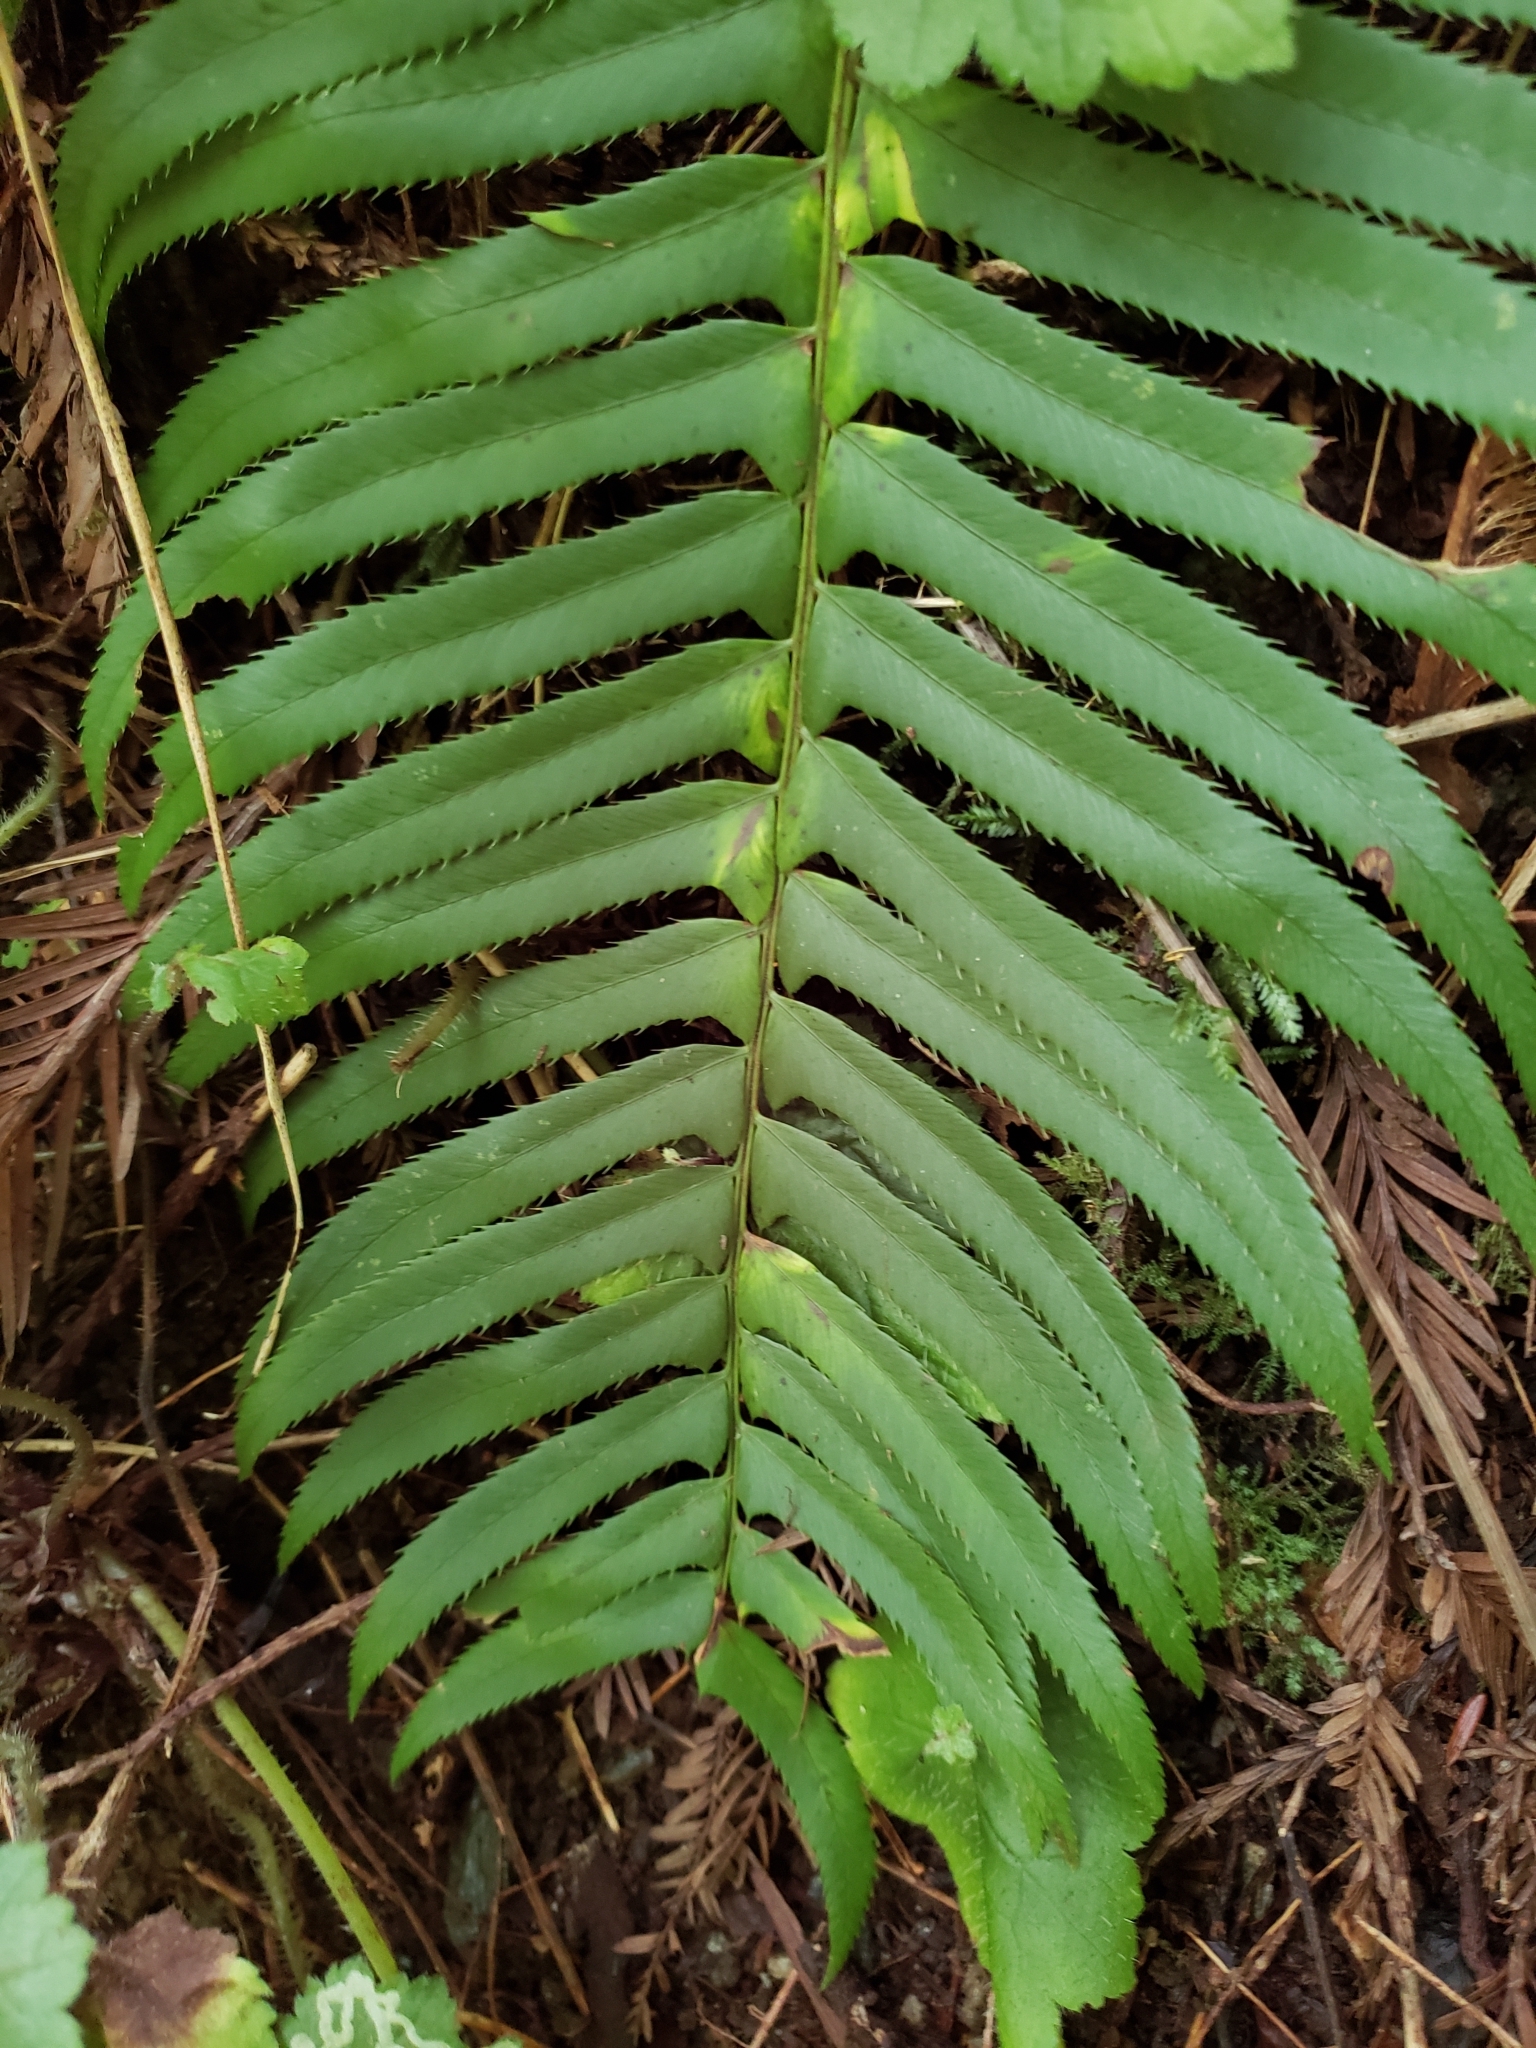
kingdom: Plantae
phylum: Tracheophyta
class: Polypodiopsida
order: Polypodiales
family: Dryopteridaceae
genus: Polystichum
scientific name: Polystichum munitum
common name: Western sword-fern
